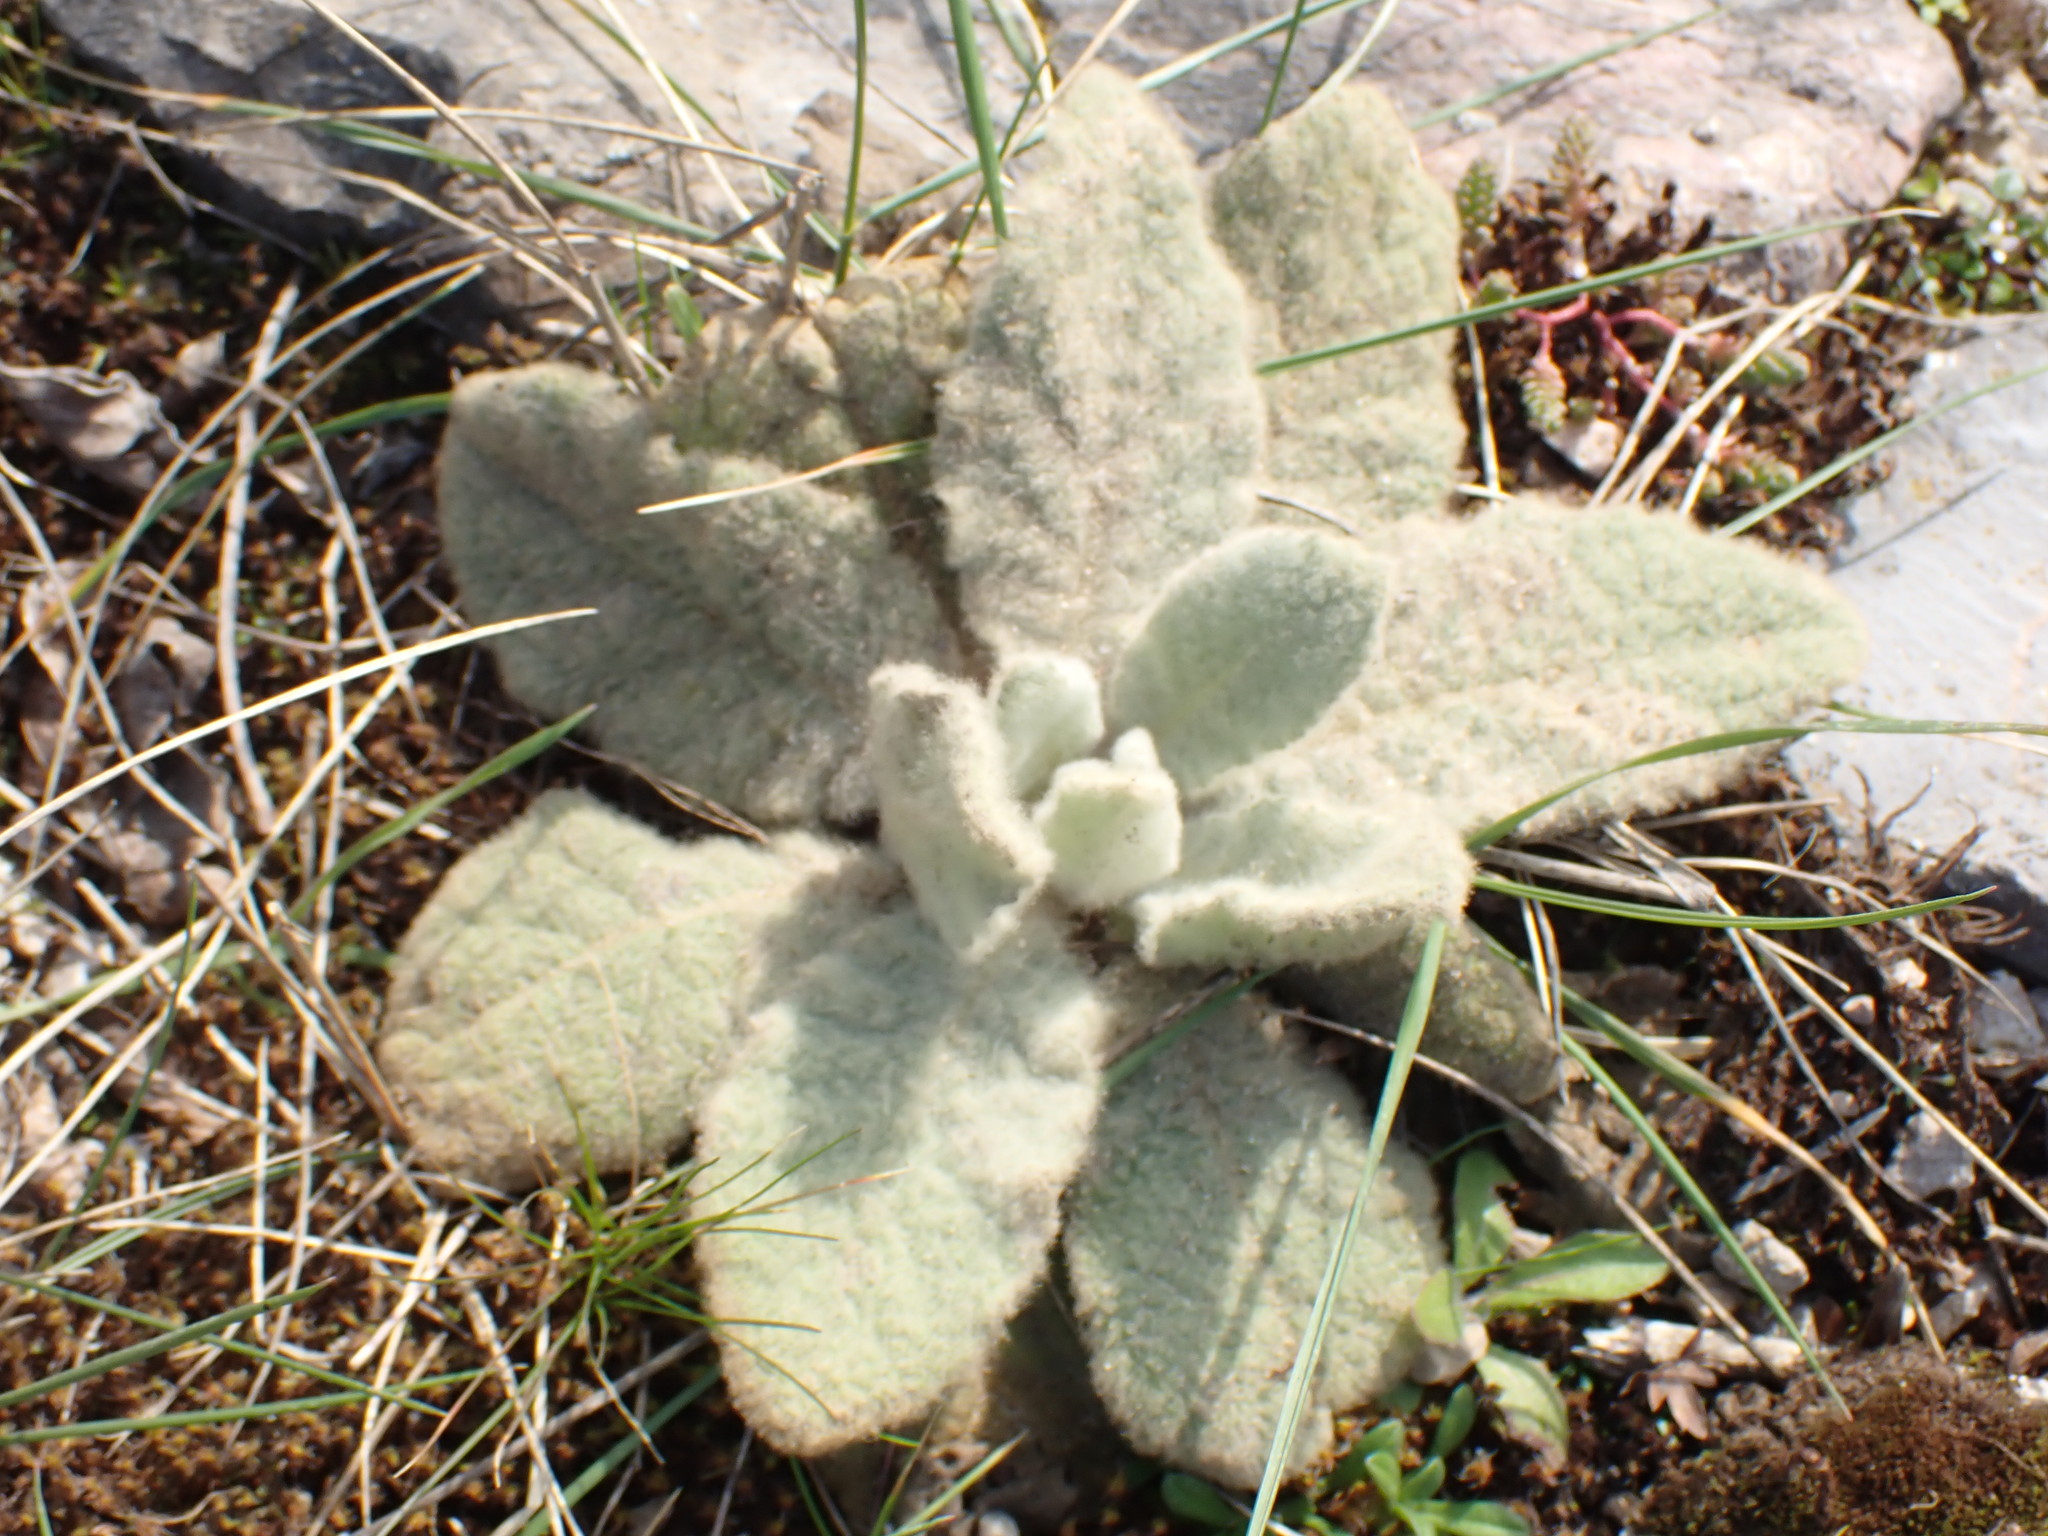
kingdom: Plantae
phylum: Tracheophyta
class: Magnoliopsida
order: Lamiales
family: Scrophulariaceae
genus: Verbascum
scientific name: Verbascum thapsus
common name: Common mullein
